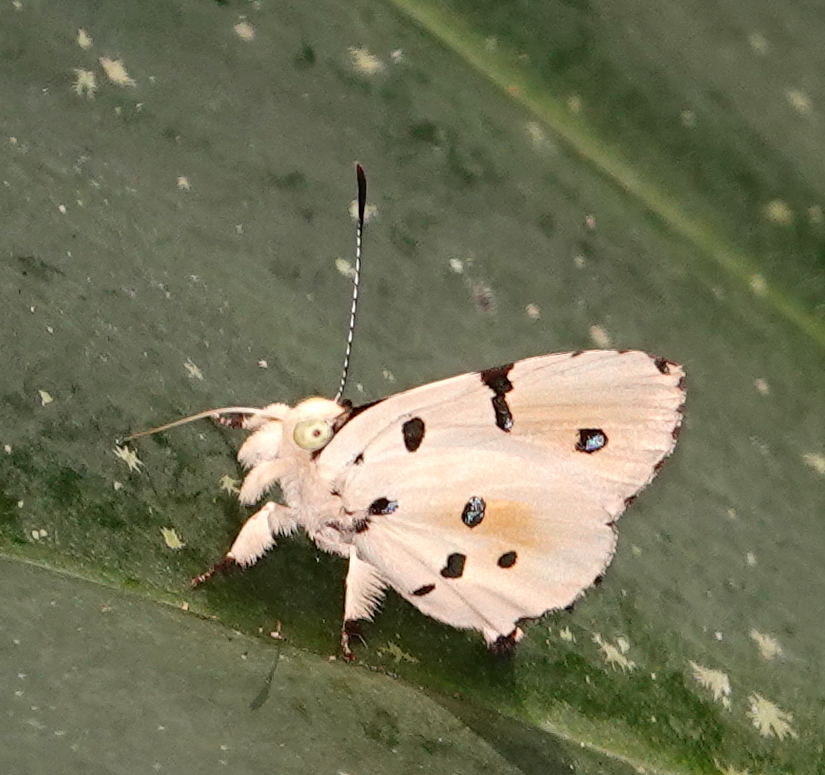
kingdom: Animalia
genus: Anteros
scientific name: Anteros allectus
